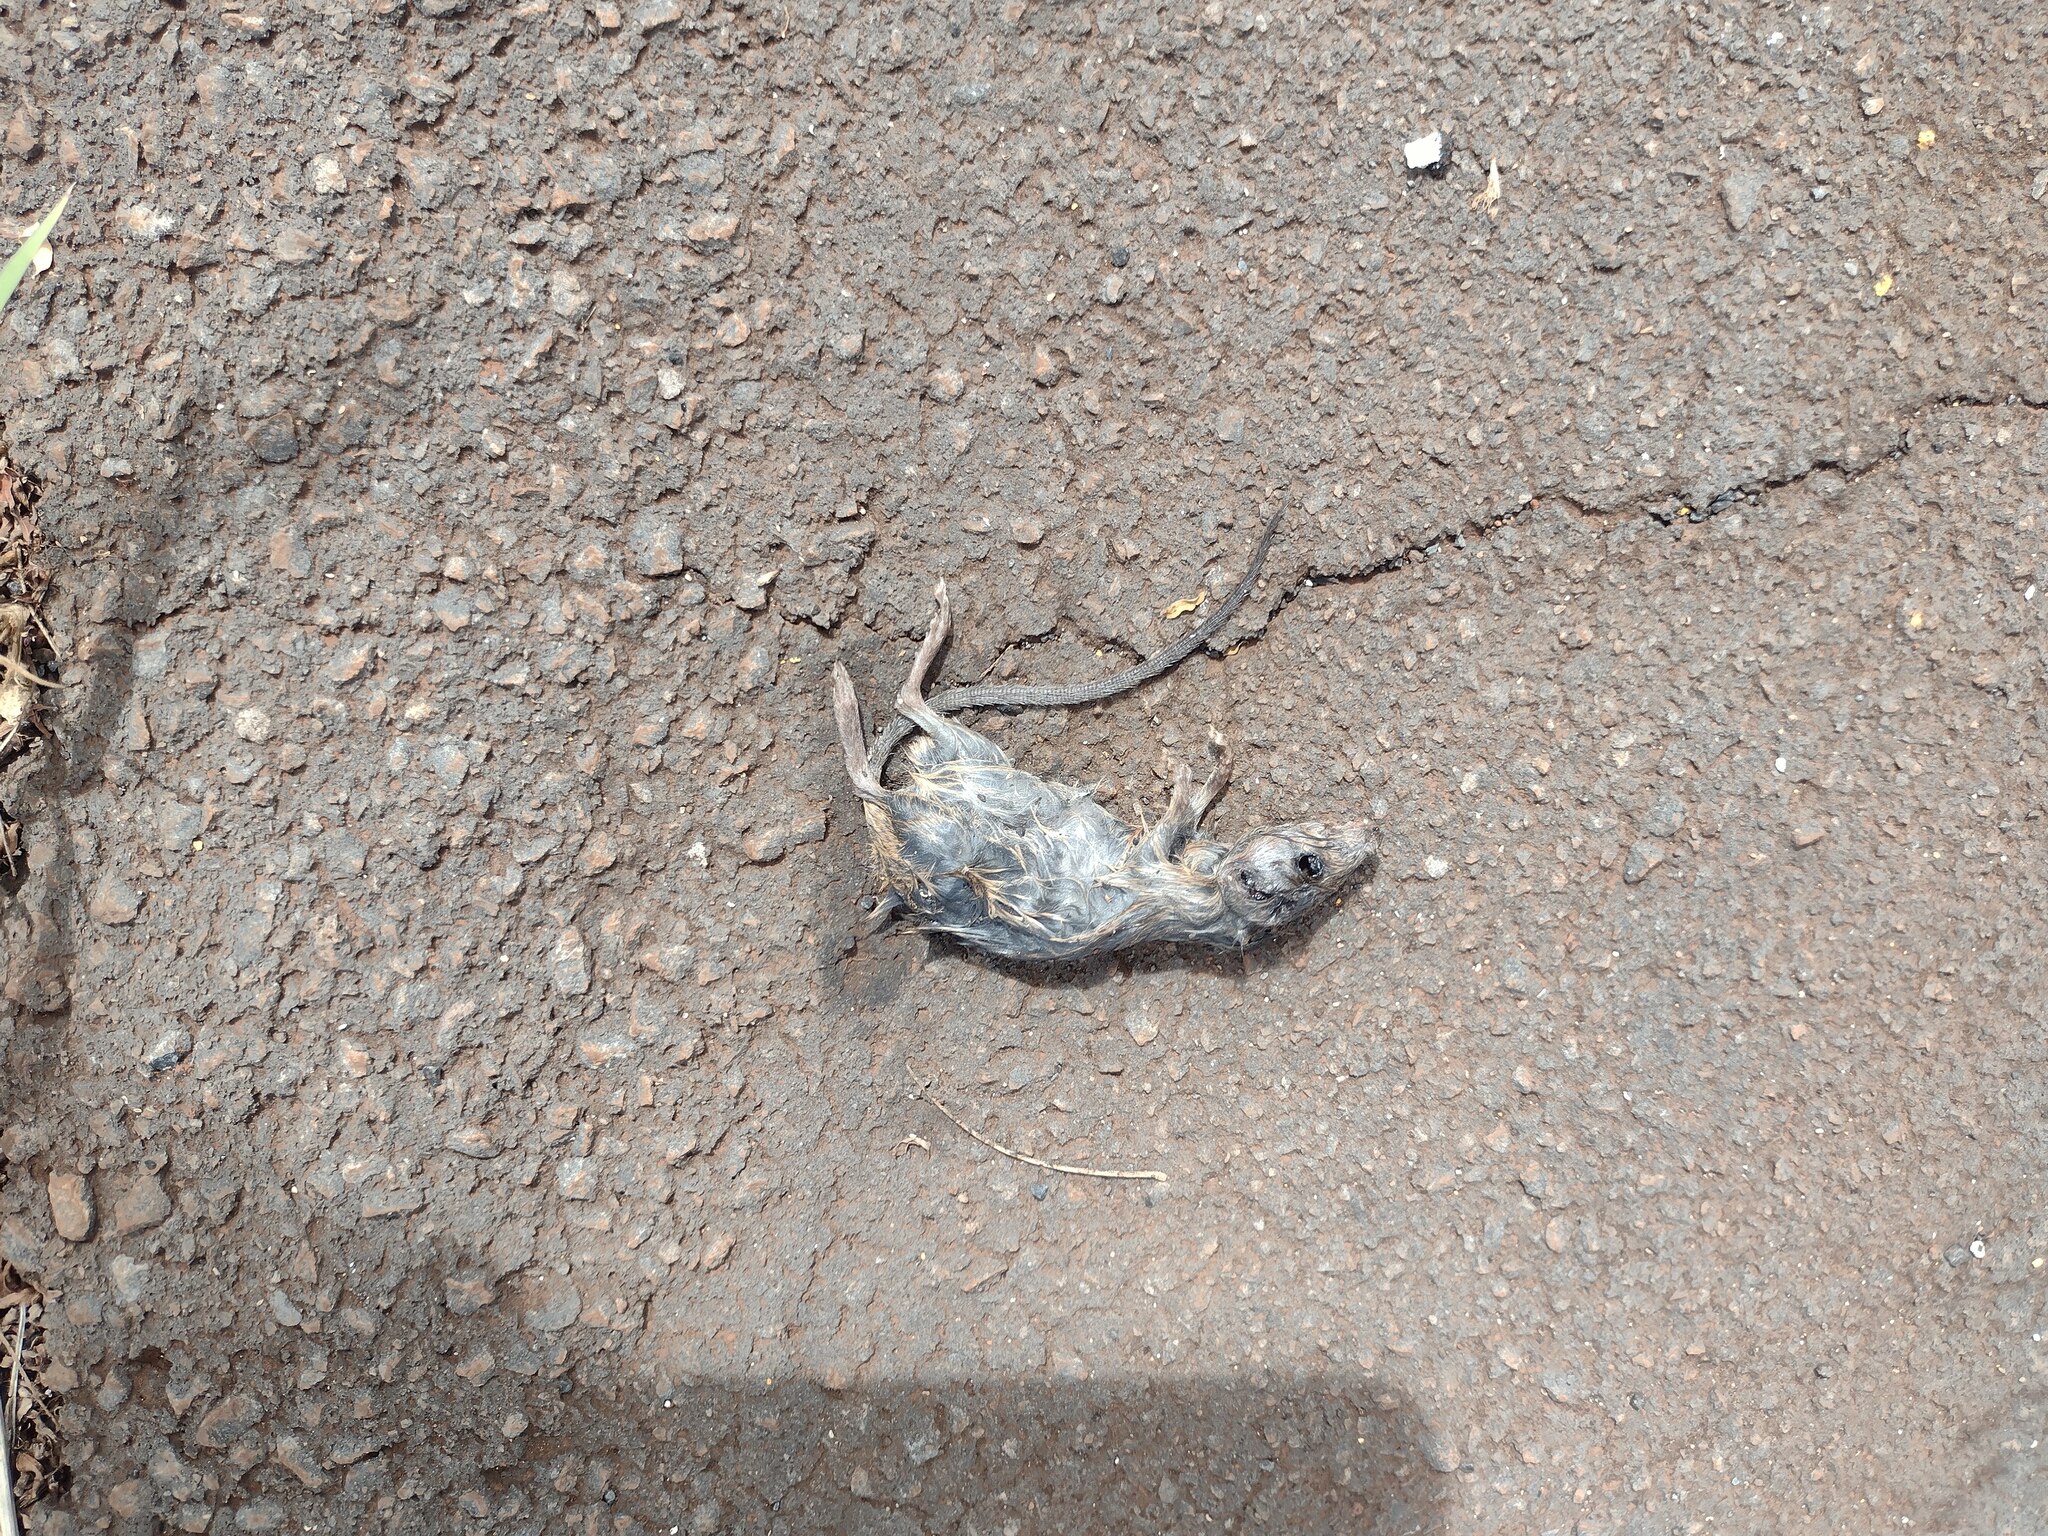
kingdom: Animalia
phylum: Chordata
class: Mammalia
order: Rodentia
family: Muridae
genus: Rattus
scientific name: Rattus rattus
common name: Black rat
